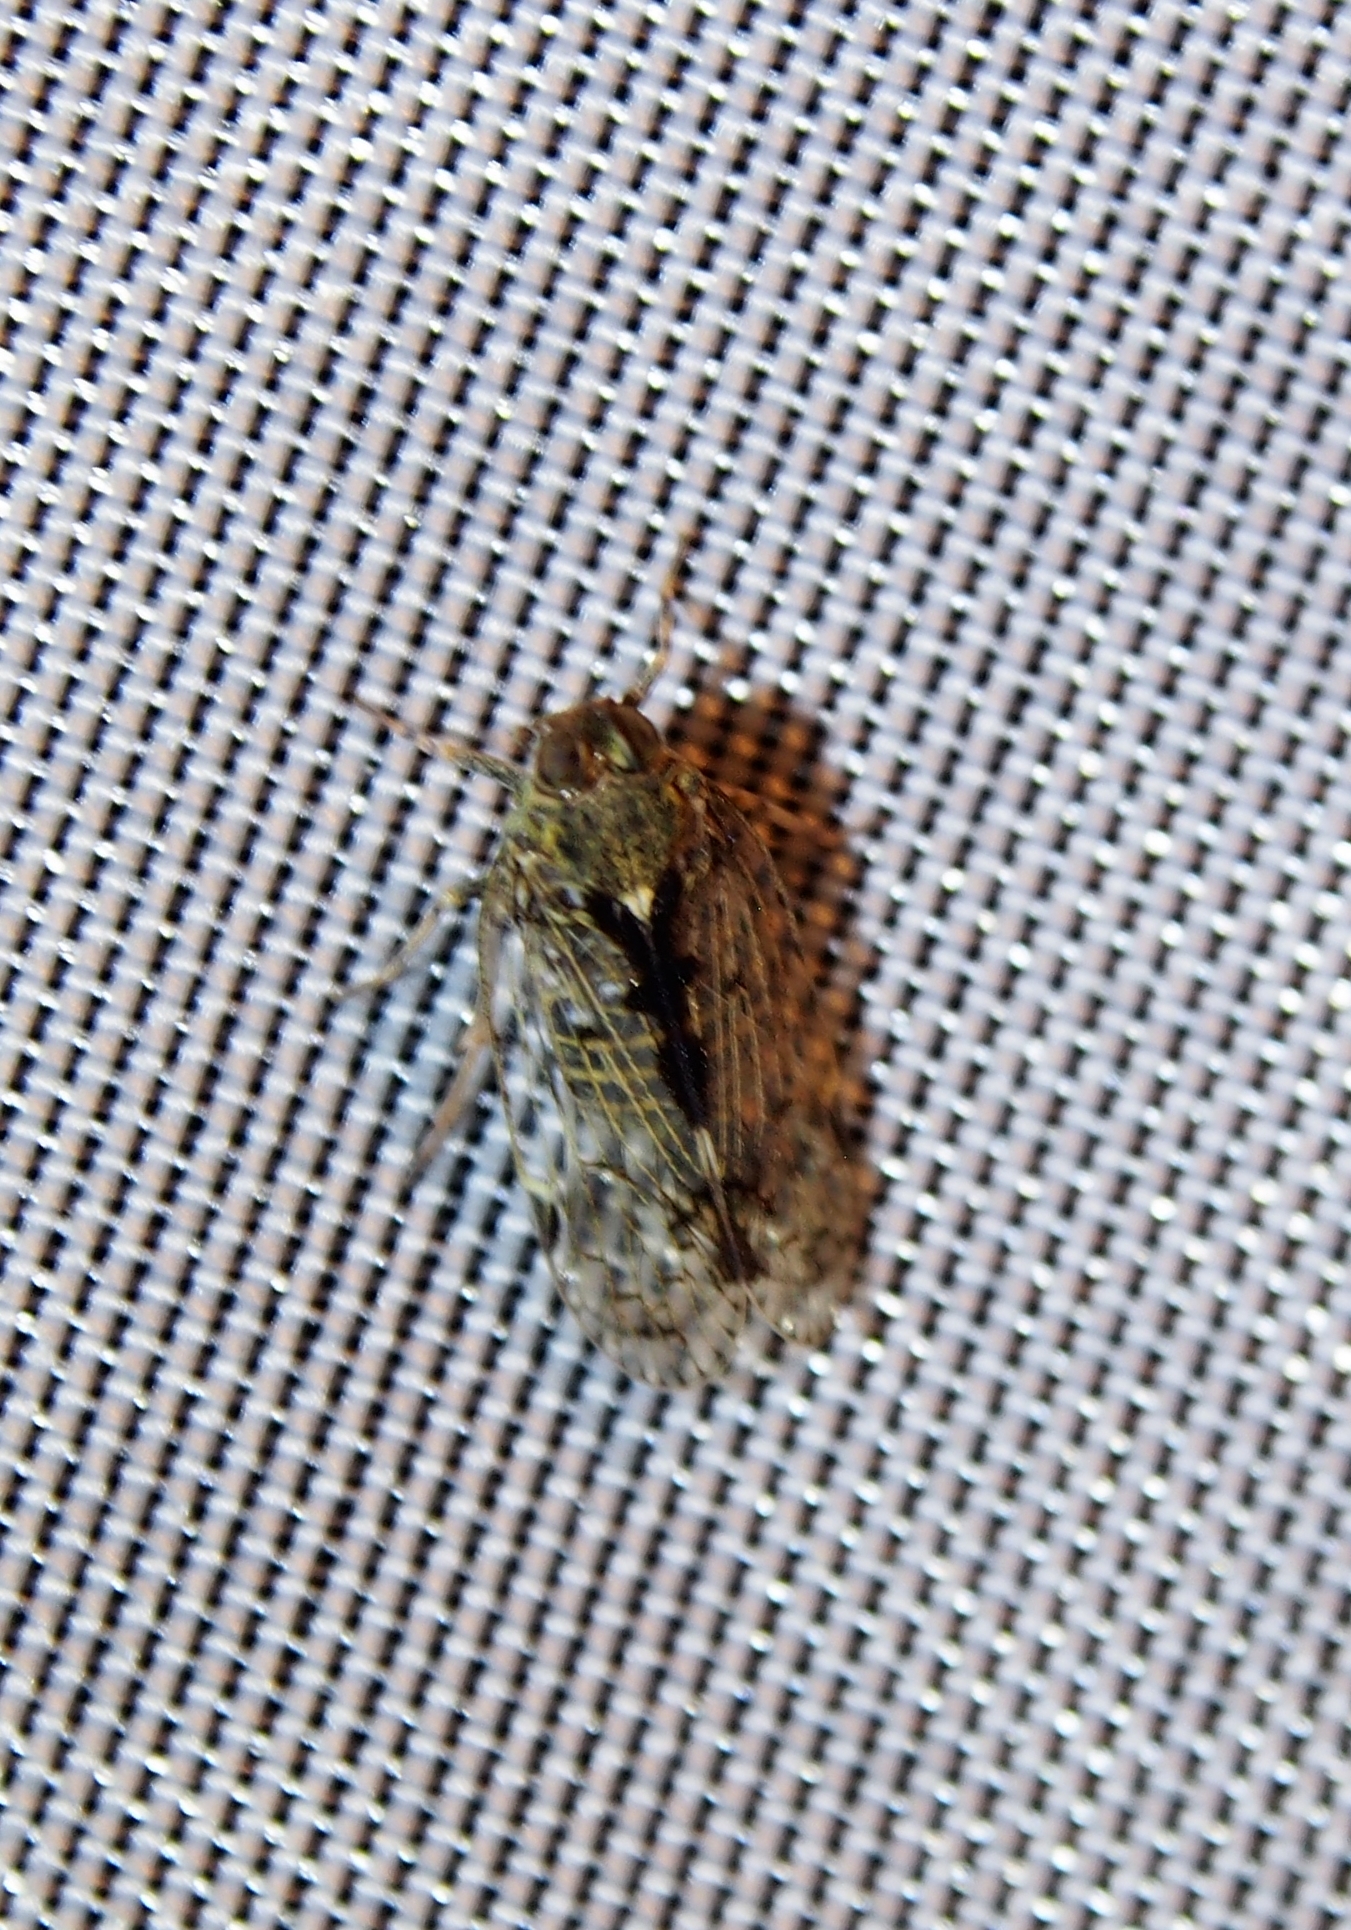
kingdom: Animalia
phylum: Arthropoda
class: Insecta
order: Hemiptera
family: Cixiidae
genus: Melanoliarus
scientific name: Melanoliarus placitus
